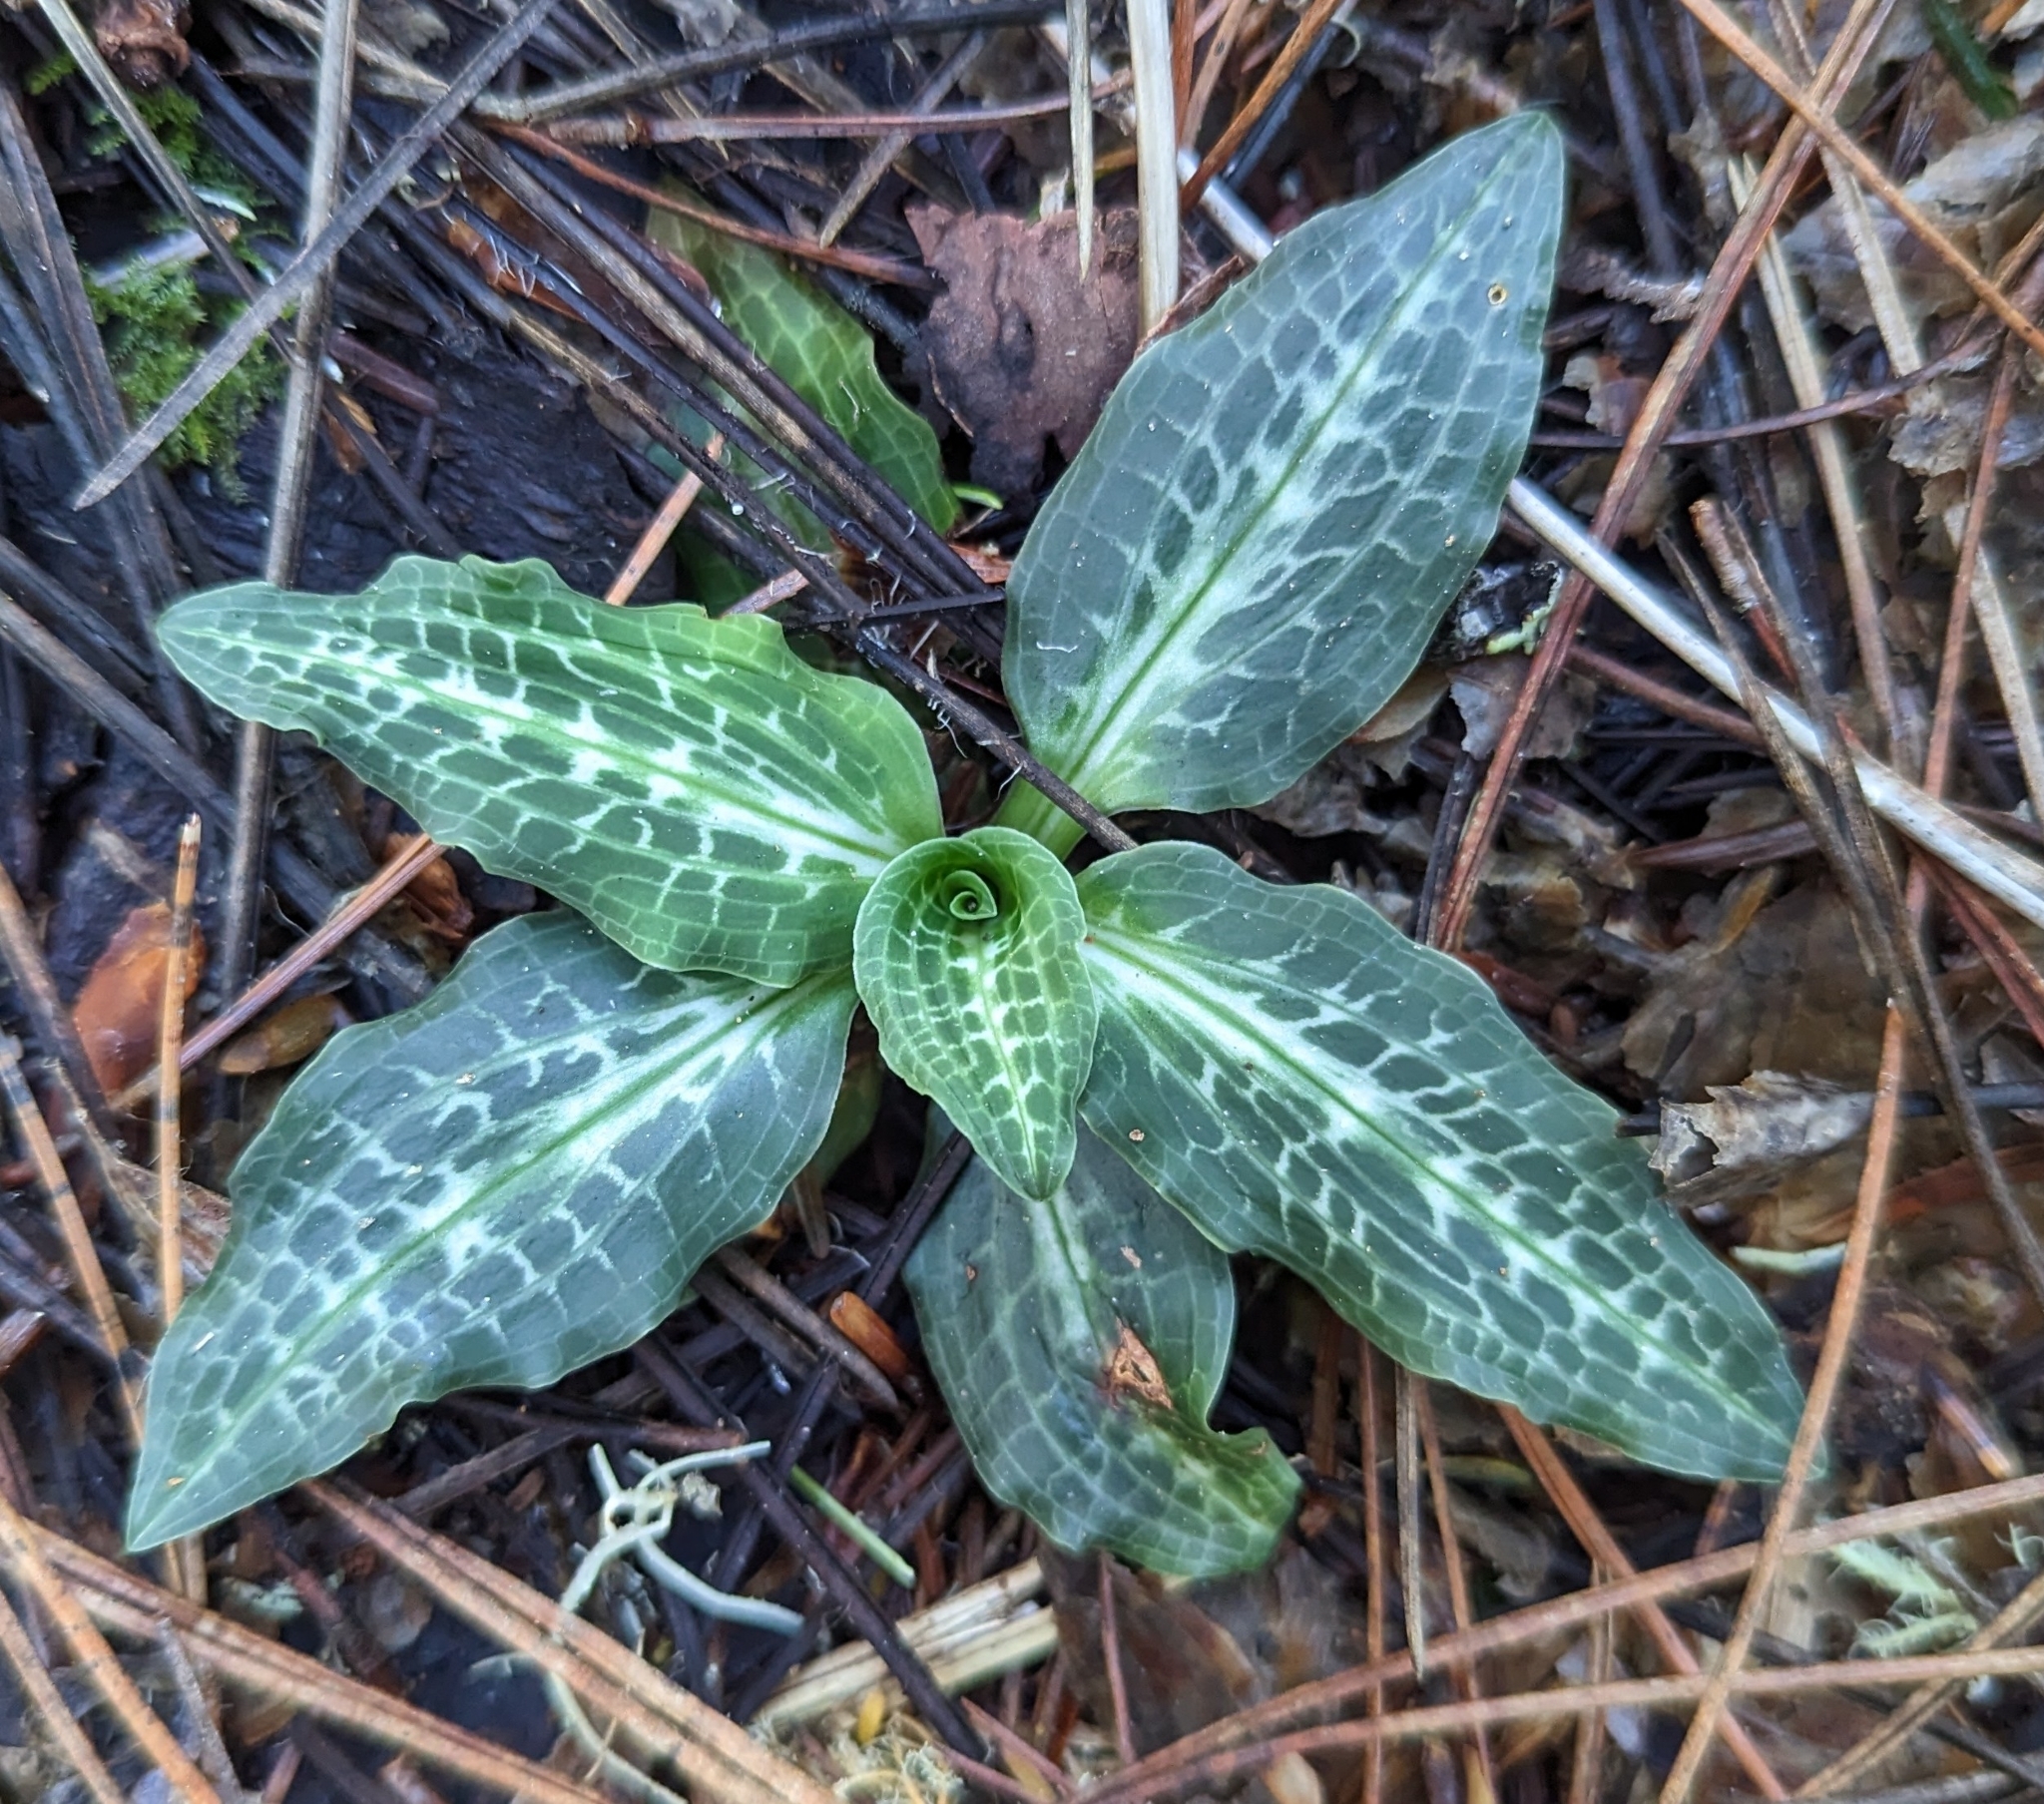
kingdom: Plantae
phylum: Tracheophyta
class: Liliopsida
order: Asparagales
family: Orchidaceae
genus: Goodyera
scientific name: Goodyera oblongifolia
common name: Giant rattlesnake-plantain
